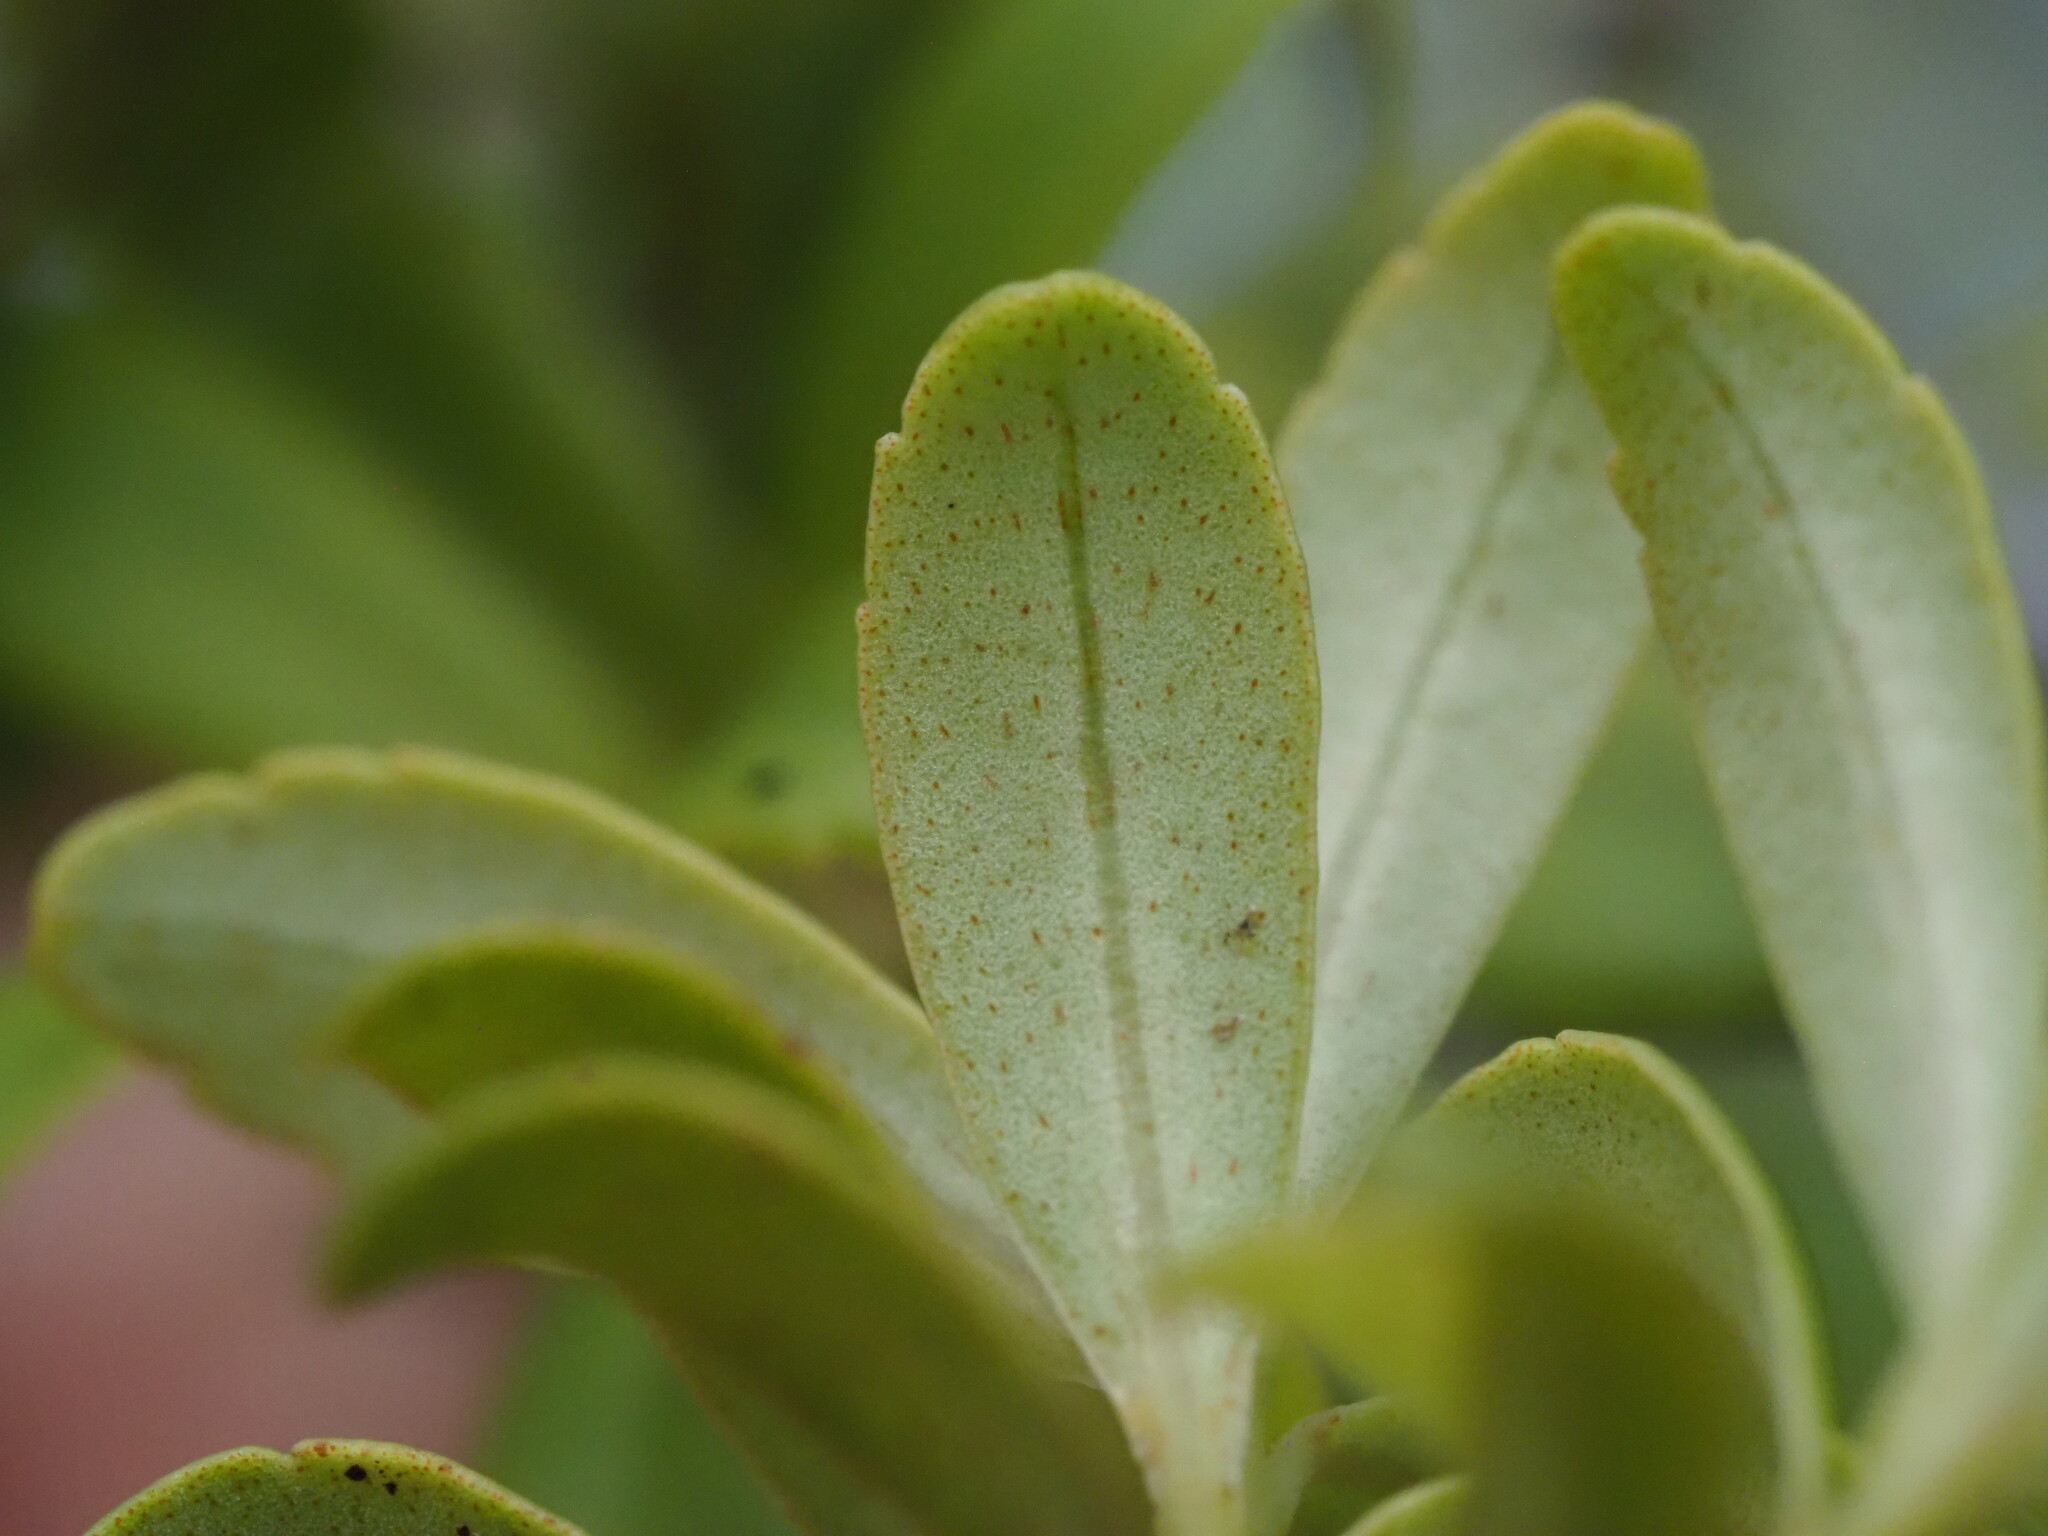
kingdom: Plantae
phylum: Tracheophyta
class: Magnoliopsida
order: Ericales
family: Primulaceae
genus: Myrsine
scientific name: Myrsine punctata
